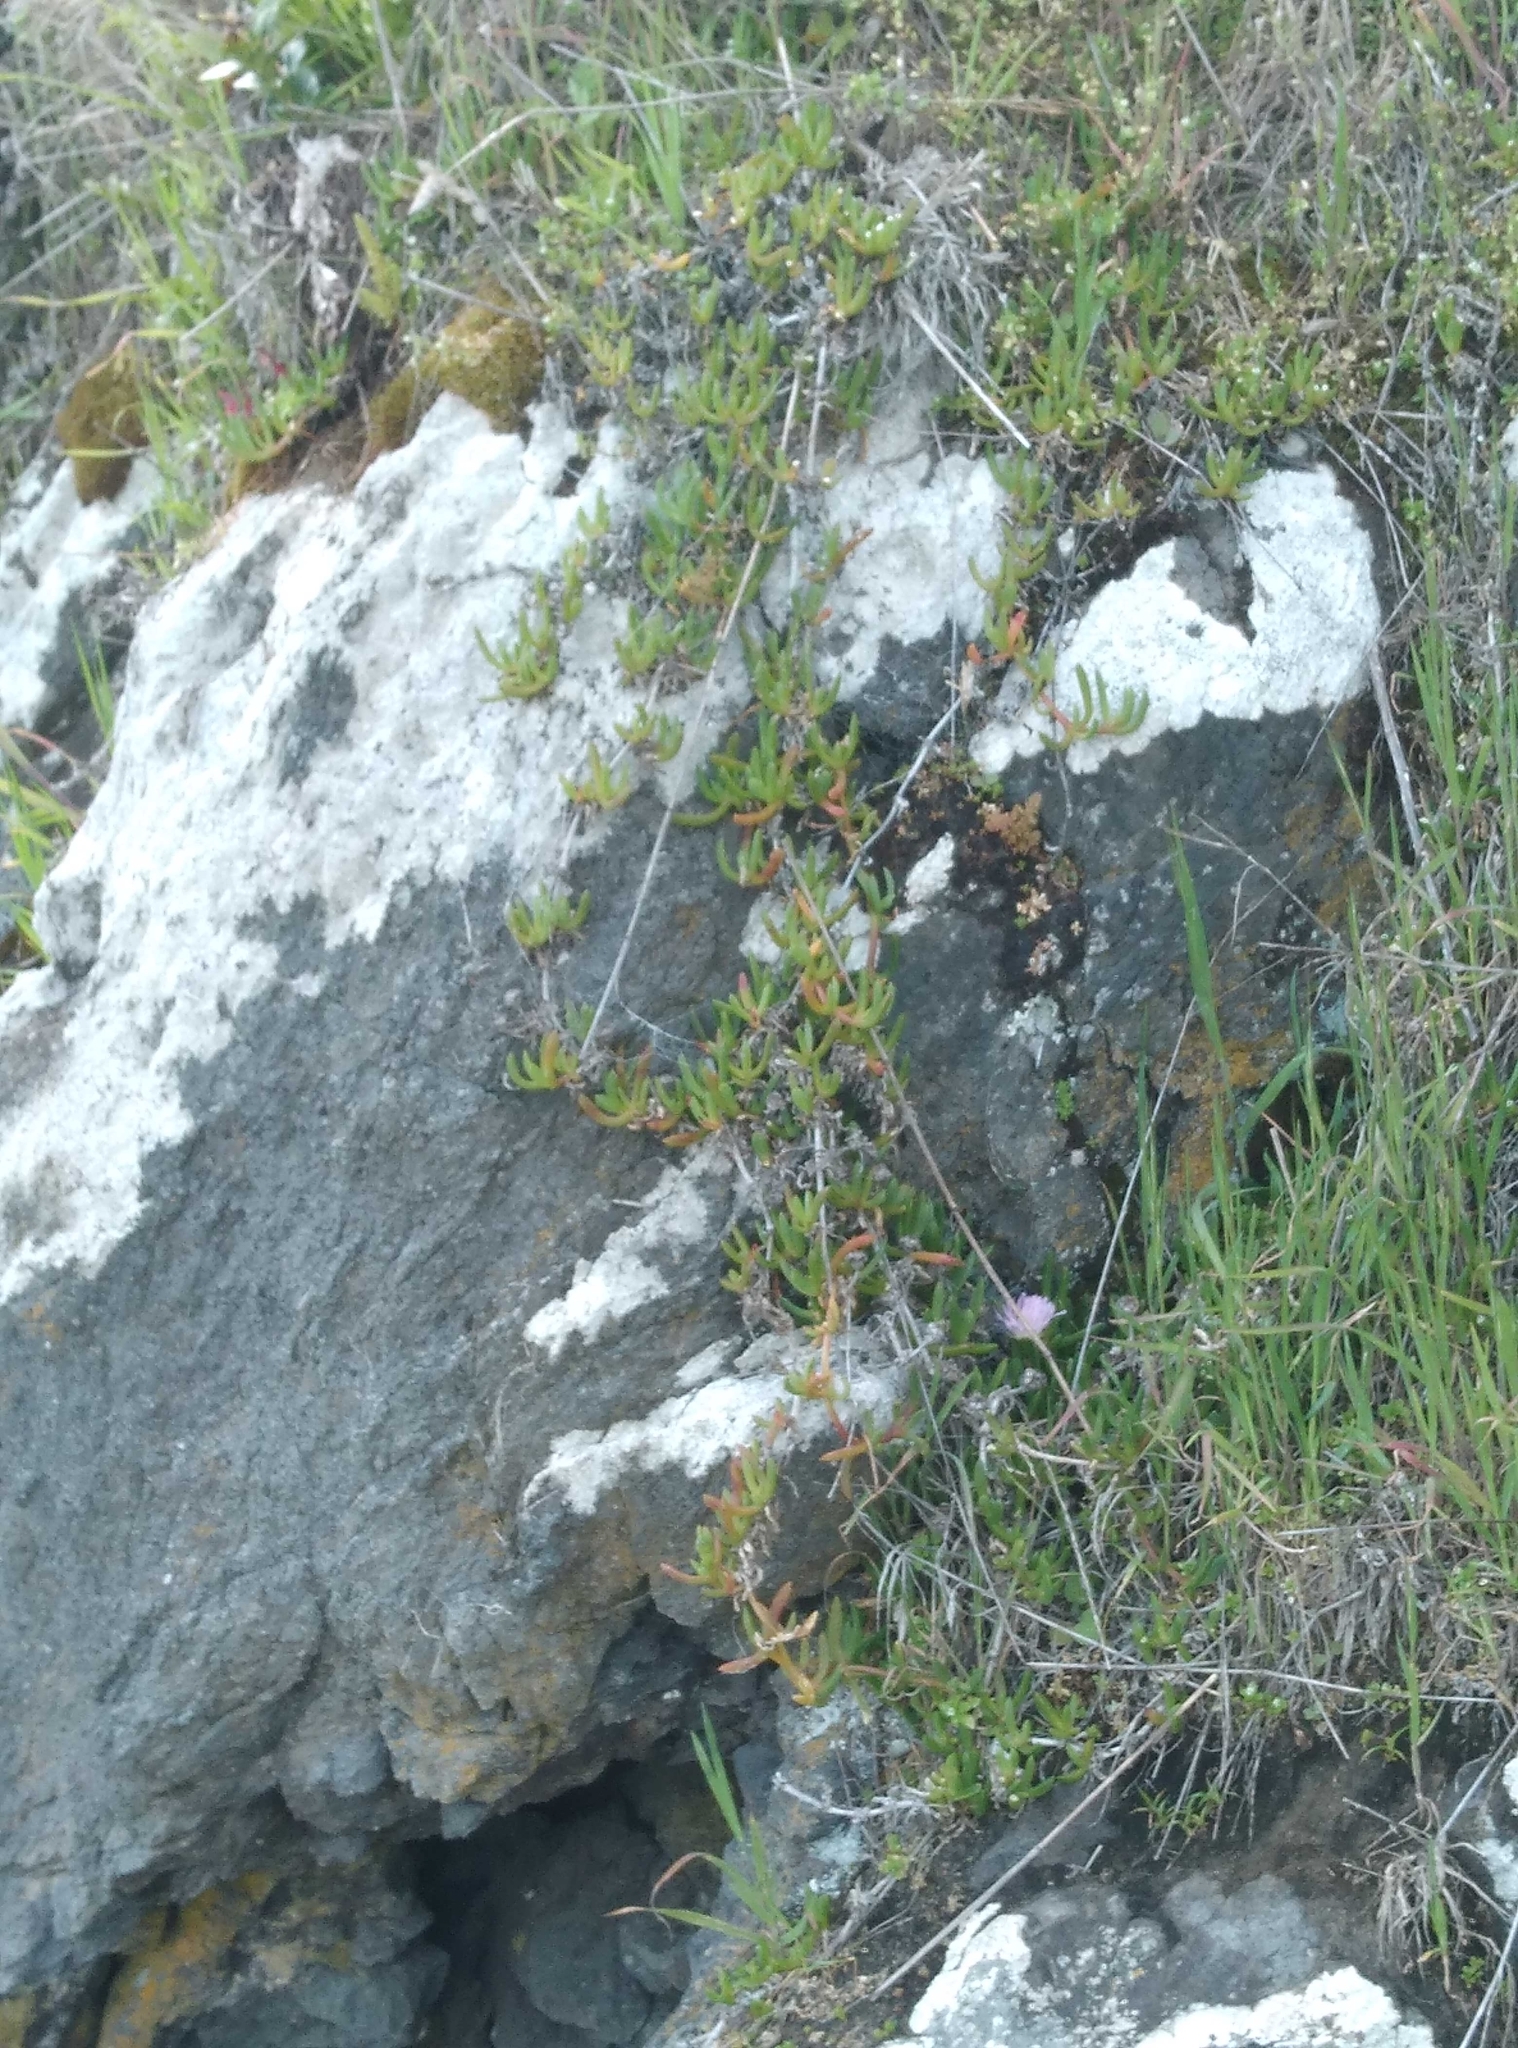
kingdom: Plantae
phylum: Tracheophyta
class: Magnoliopsida
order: Caryophyllales
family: Aizoaceae
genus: Disphyma
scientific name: Disphyma australe
